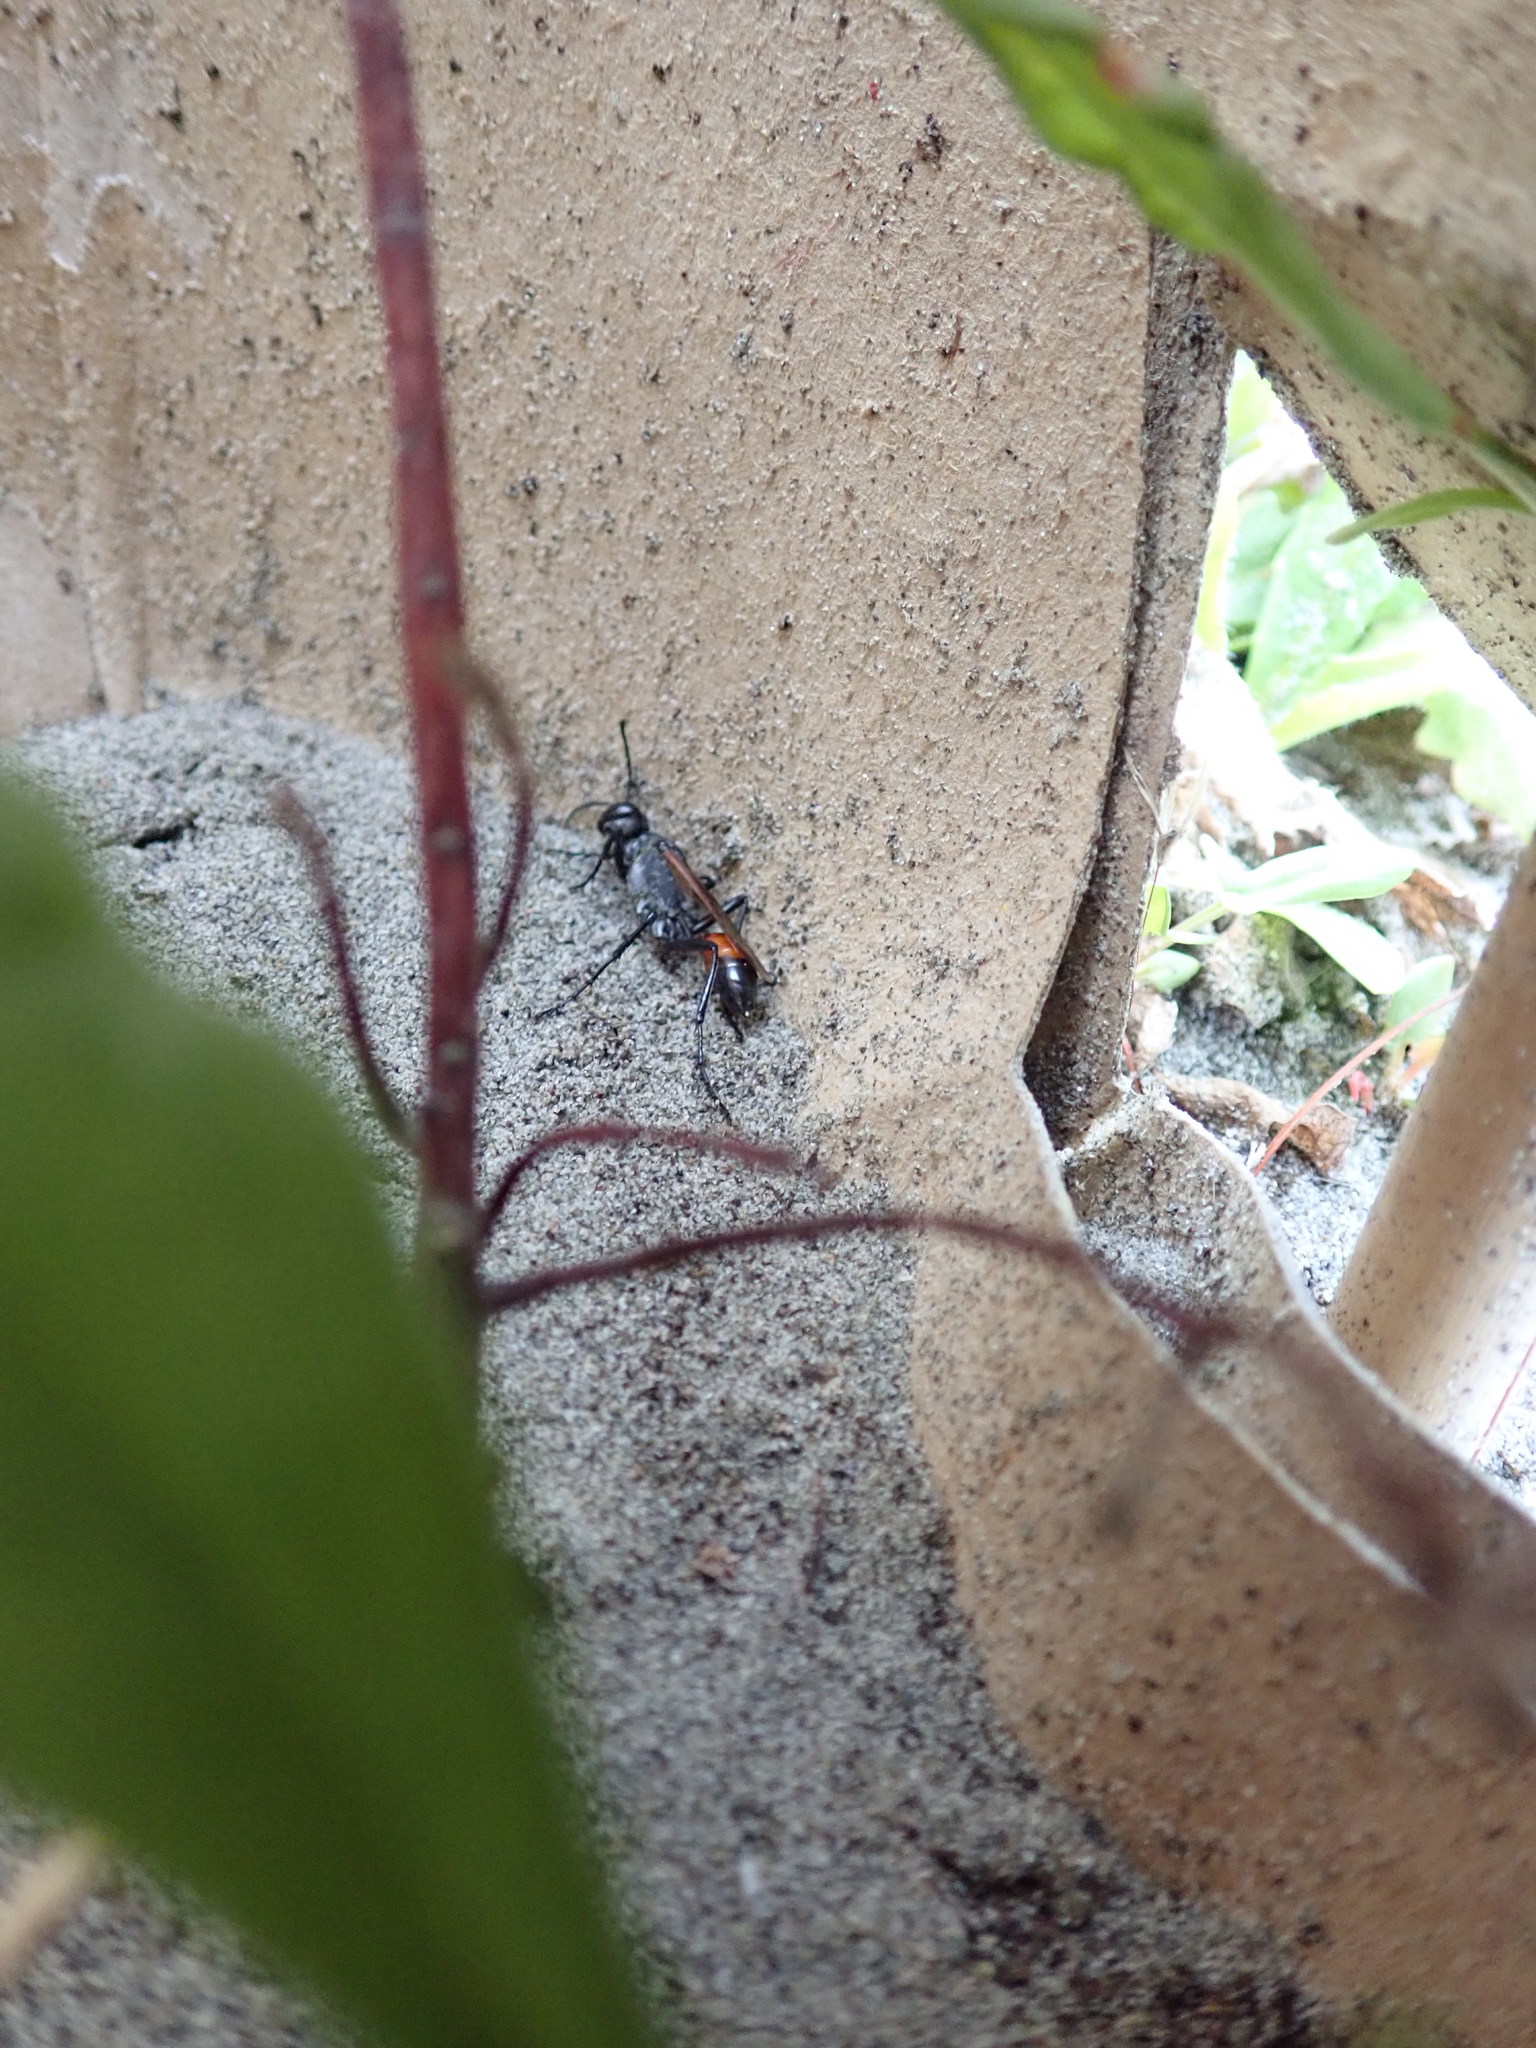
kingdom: Animalia
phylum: Arthropoda
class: Insecta
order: Hymenoptera
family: Sphecidae
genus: Podalonia
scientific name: Podalonia tydei
